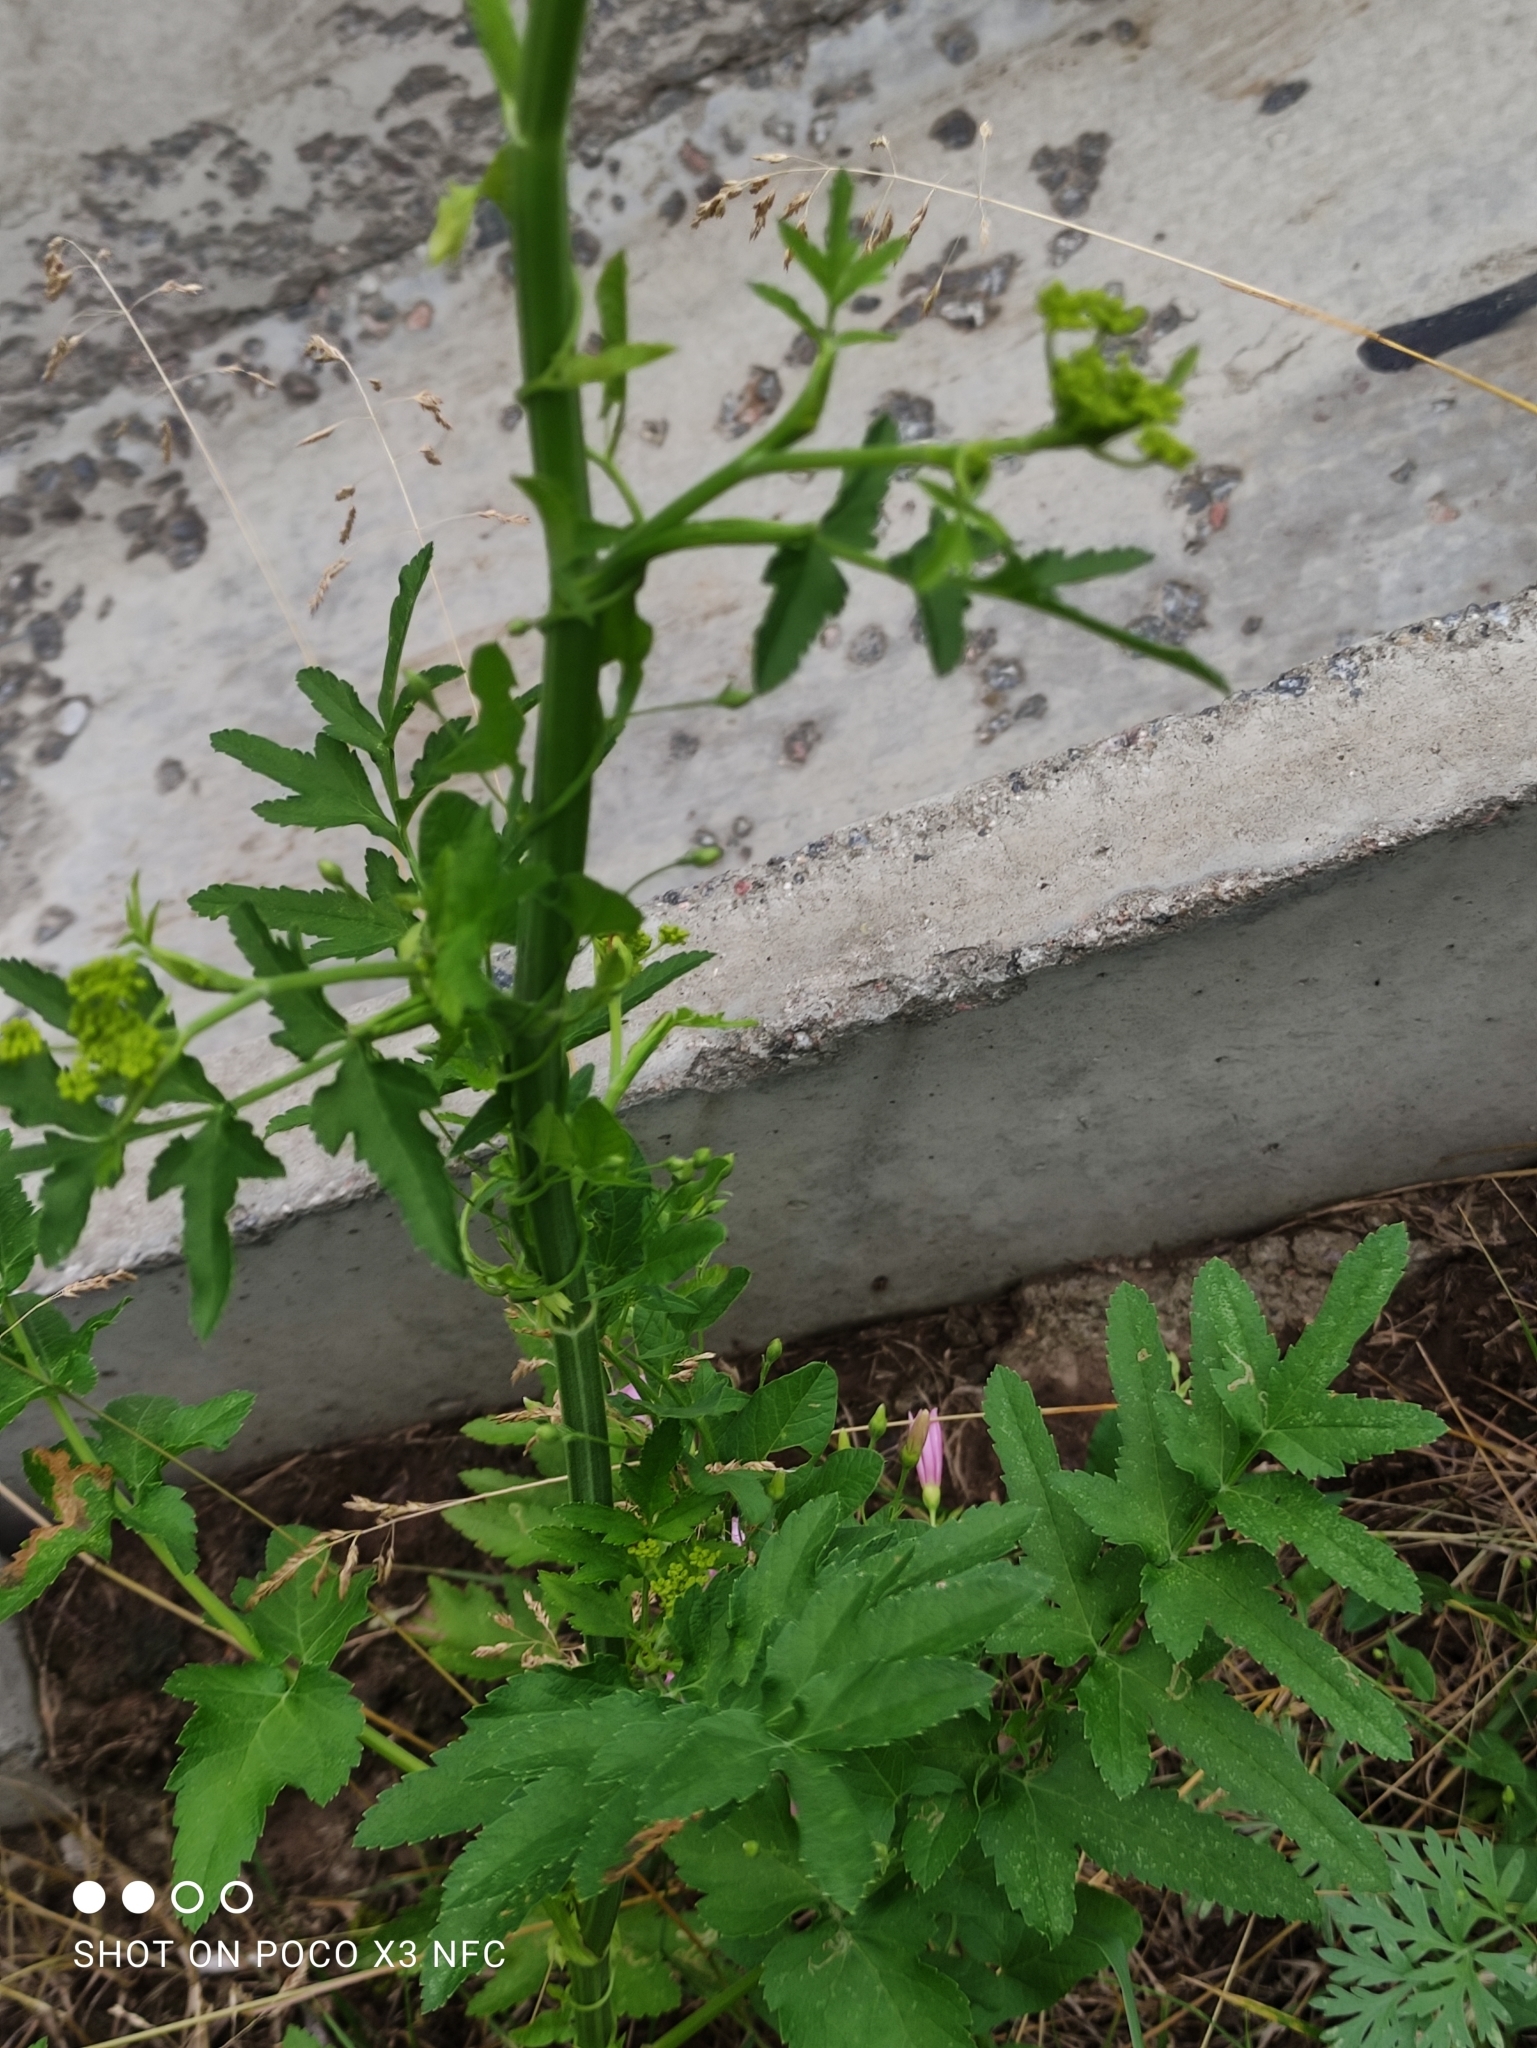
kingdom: Plantae
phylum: Tracheophyta
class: Magnoliopsida
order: Apiales
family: Apiaceae
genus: Pastinaca
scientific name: Pastinaca sativa
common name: Wild parsnip
